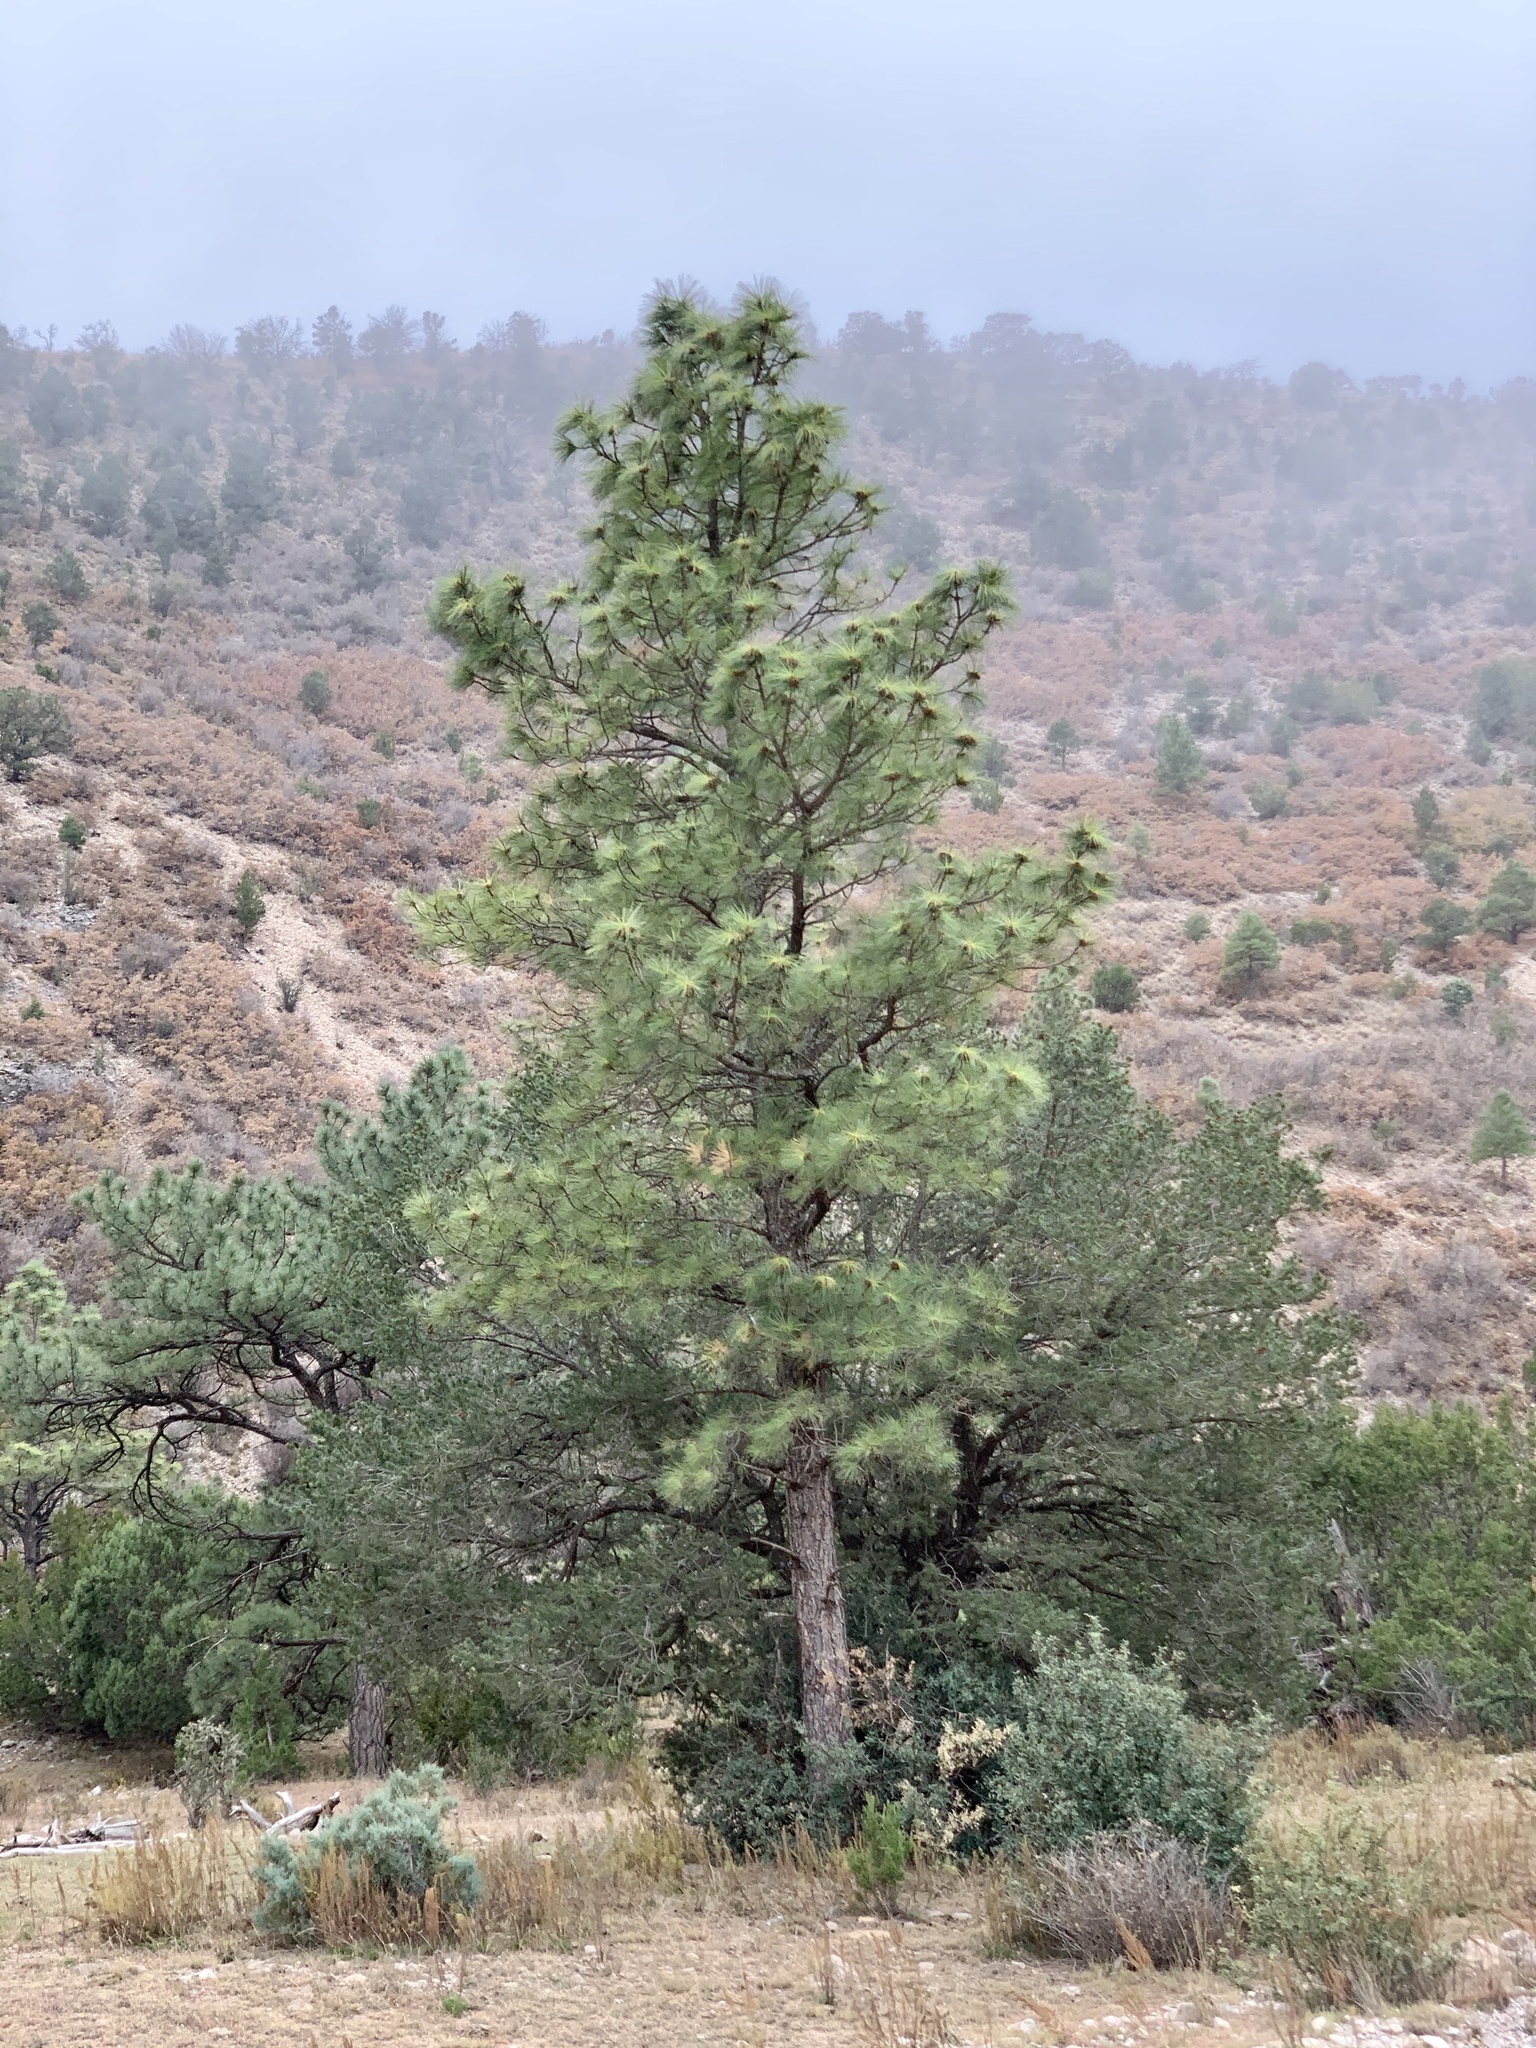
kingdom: Plantae
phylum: Tracheophyta
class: Pinopsida
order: Pinales
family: Pinaceae
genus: Pinus
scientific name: Pinus ponderosa
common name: Western yellow-pine
